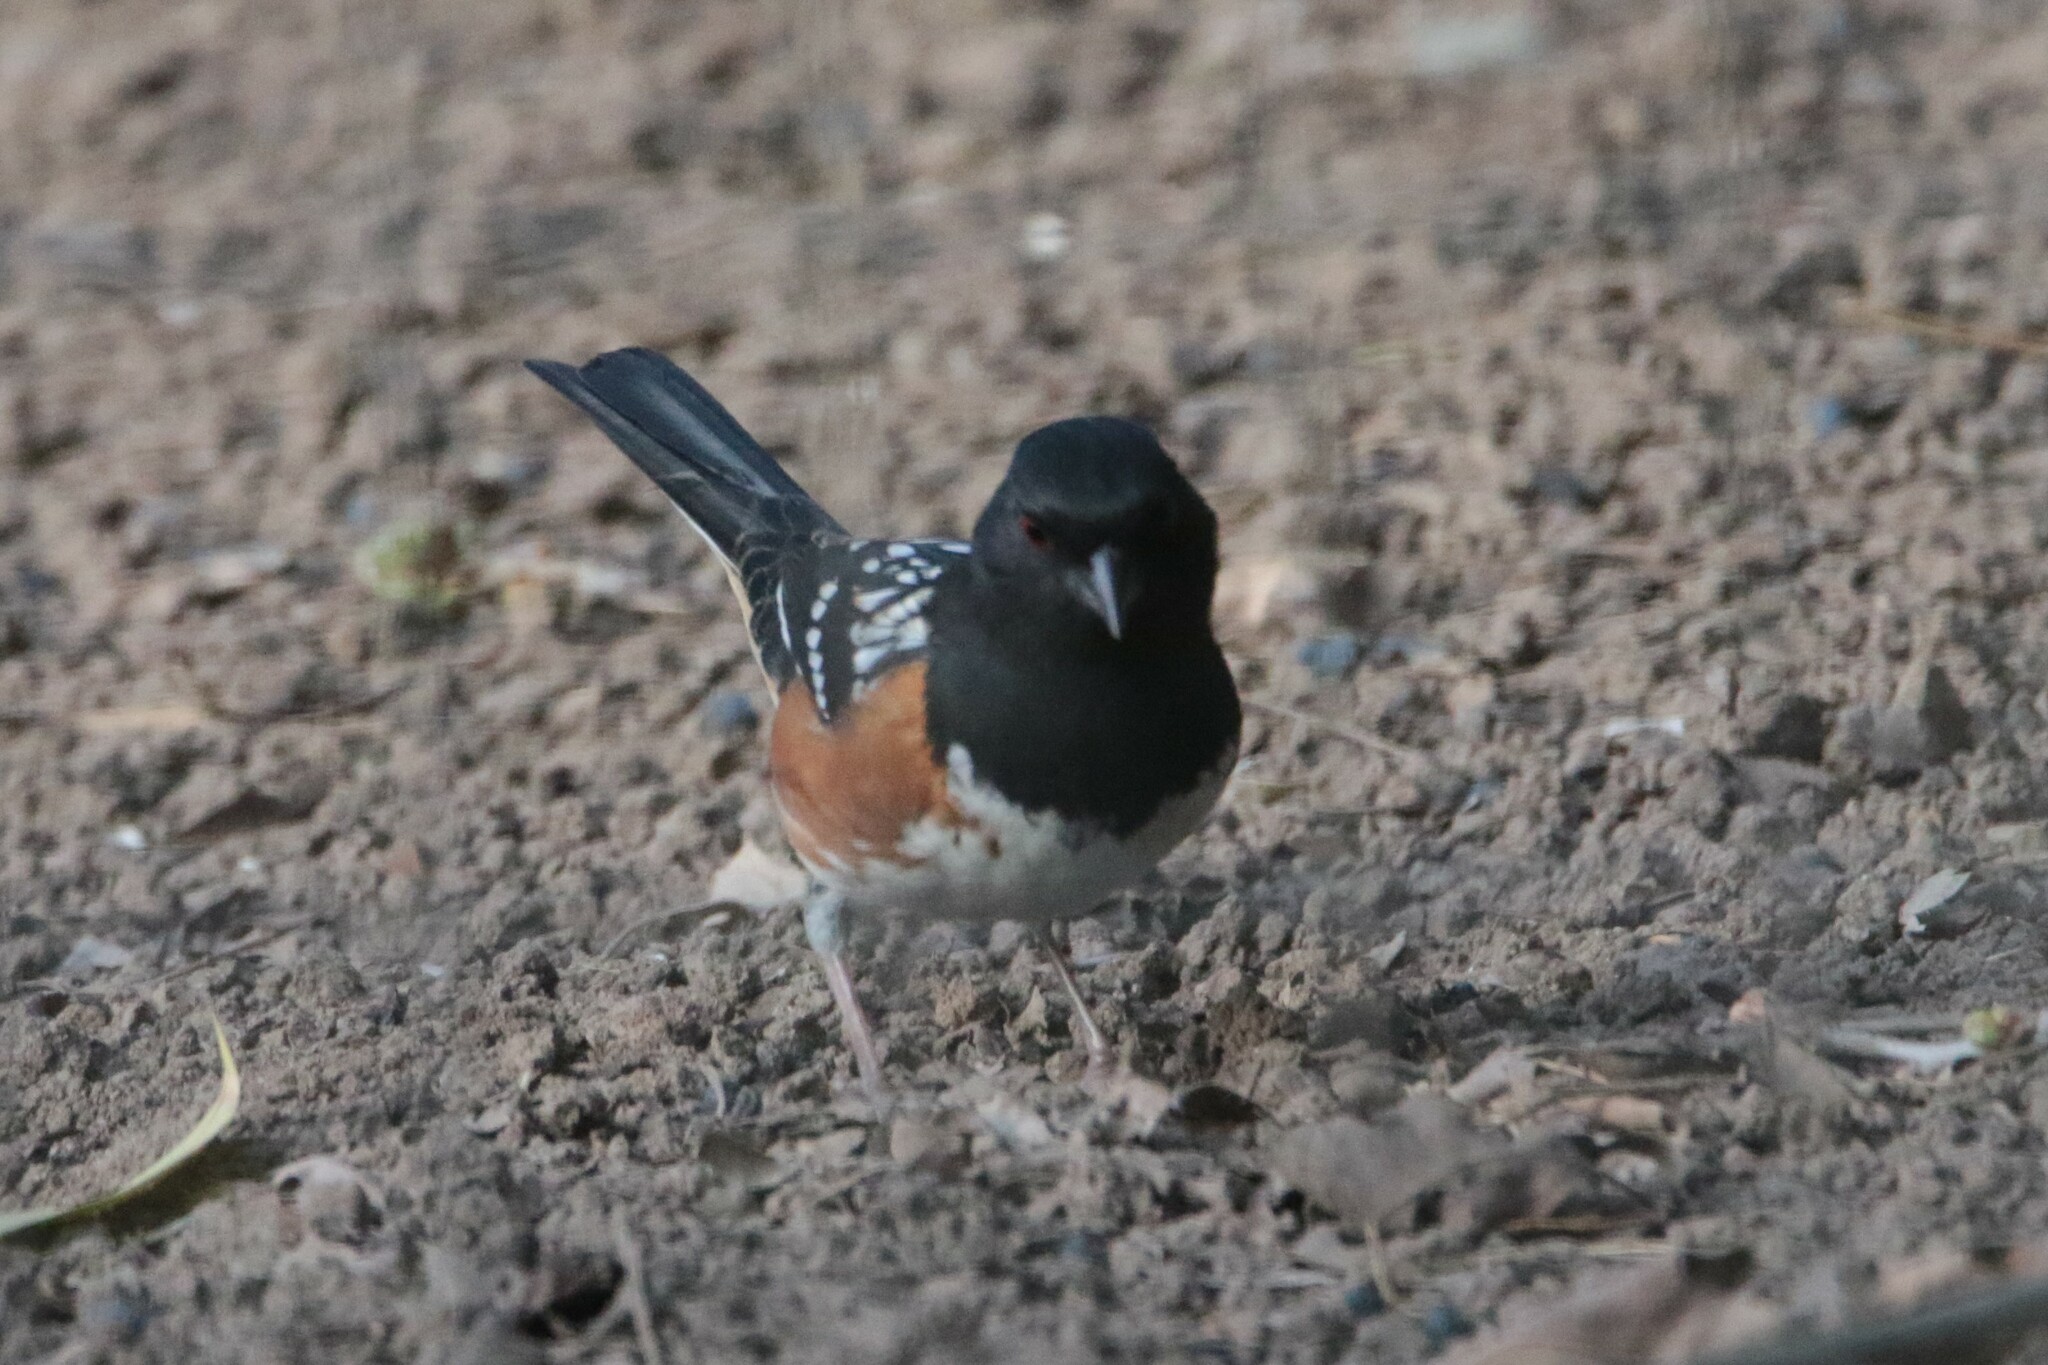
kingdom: Animalia
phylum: Chordata
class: Aves
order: Passeriformes
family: Passerellidae
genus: Pipilo
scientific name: Pipilo maculatus
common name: Spotted towhee
